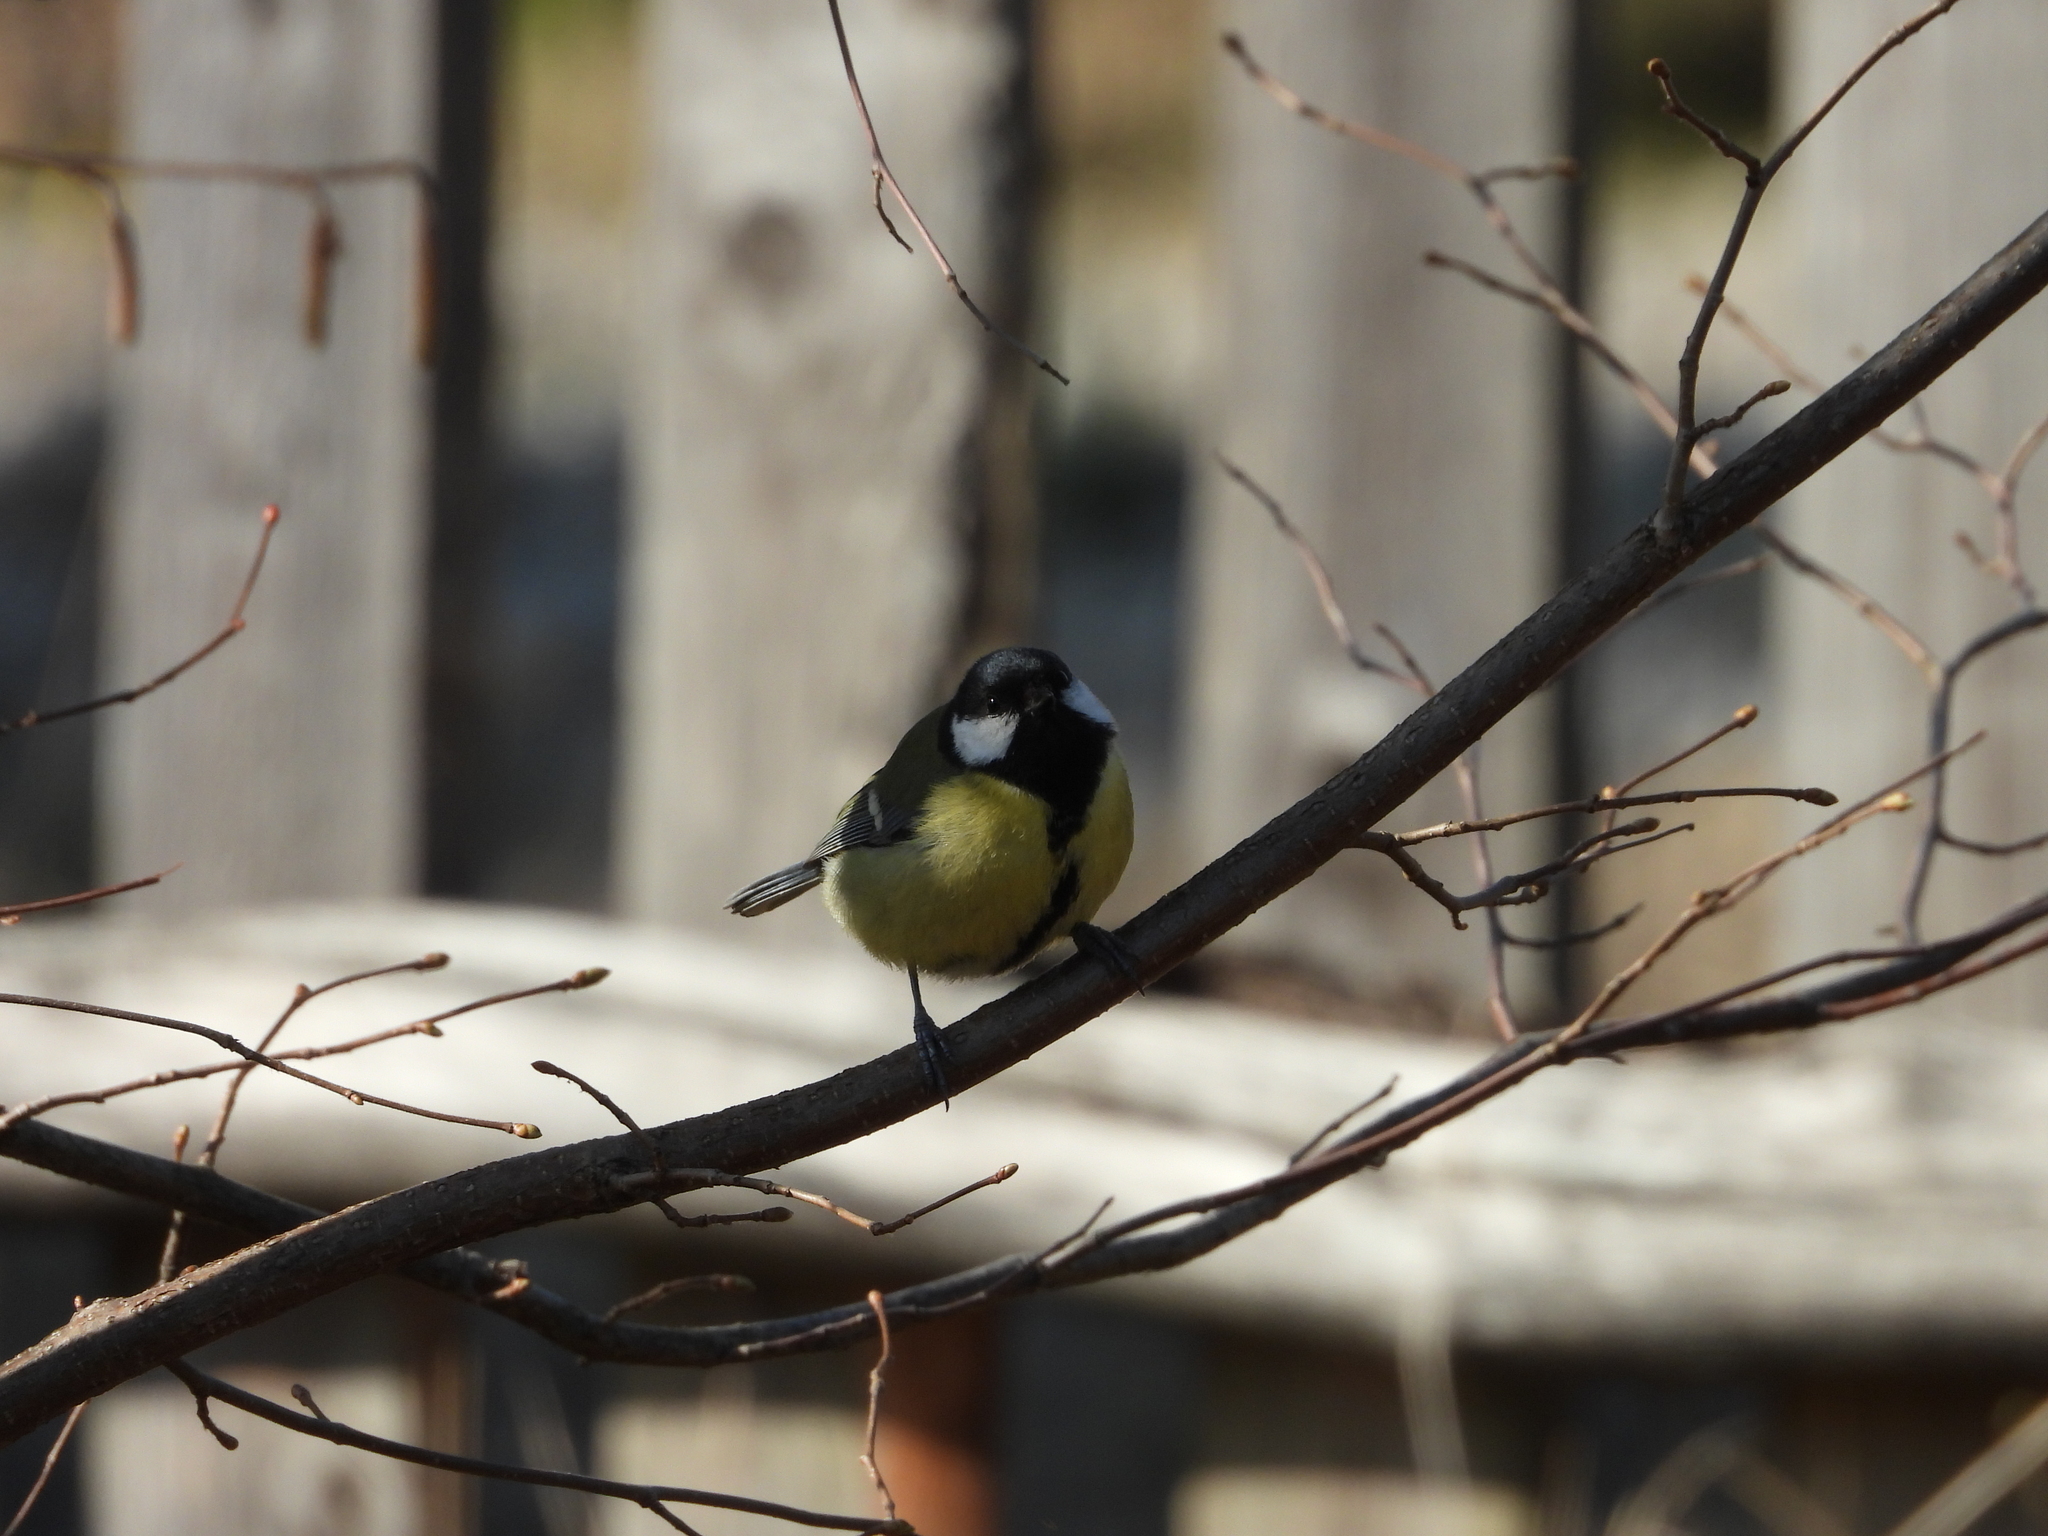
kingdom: Animalia
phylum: Chordata
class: Aves
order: Passeriformes
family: Paridae
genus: Parus
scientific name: Parus major
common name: Great tit
